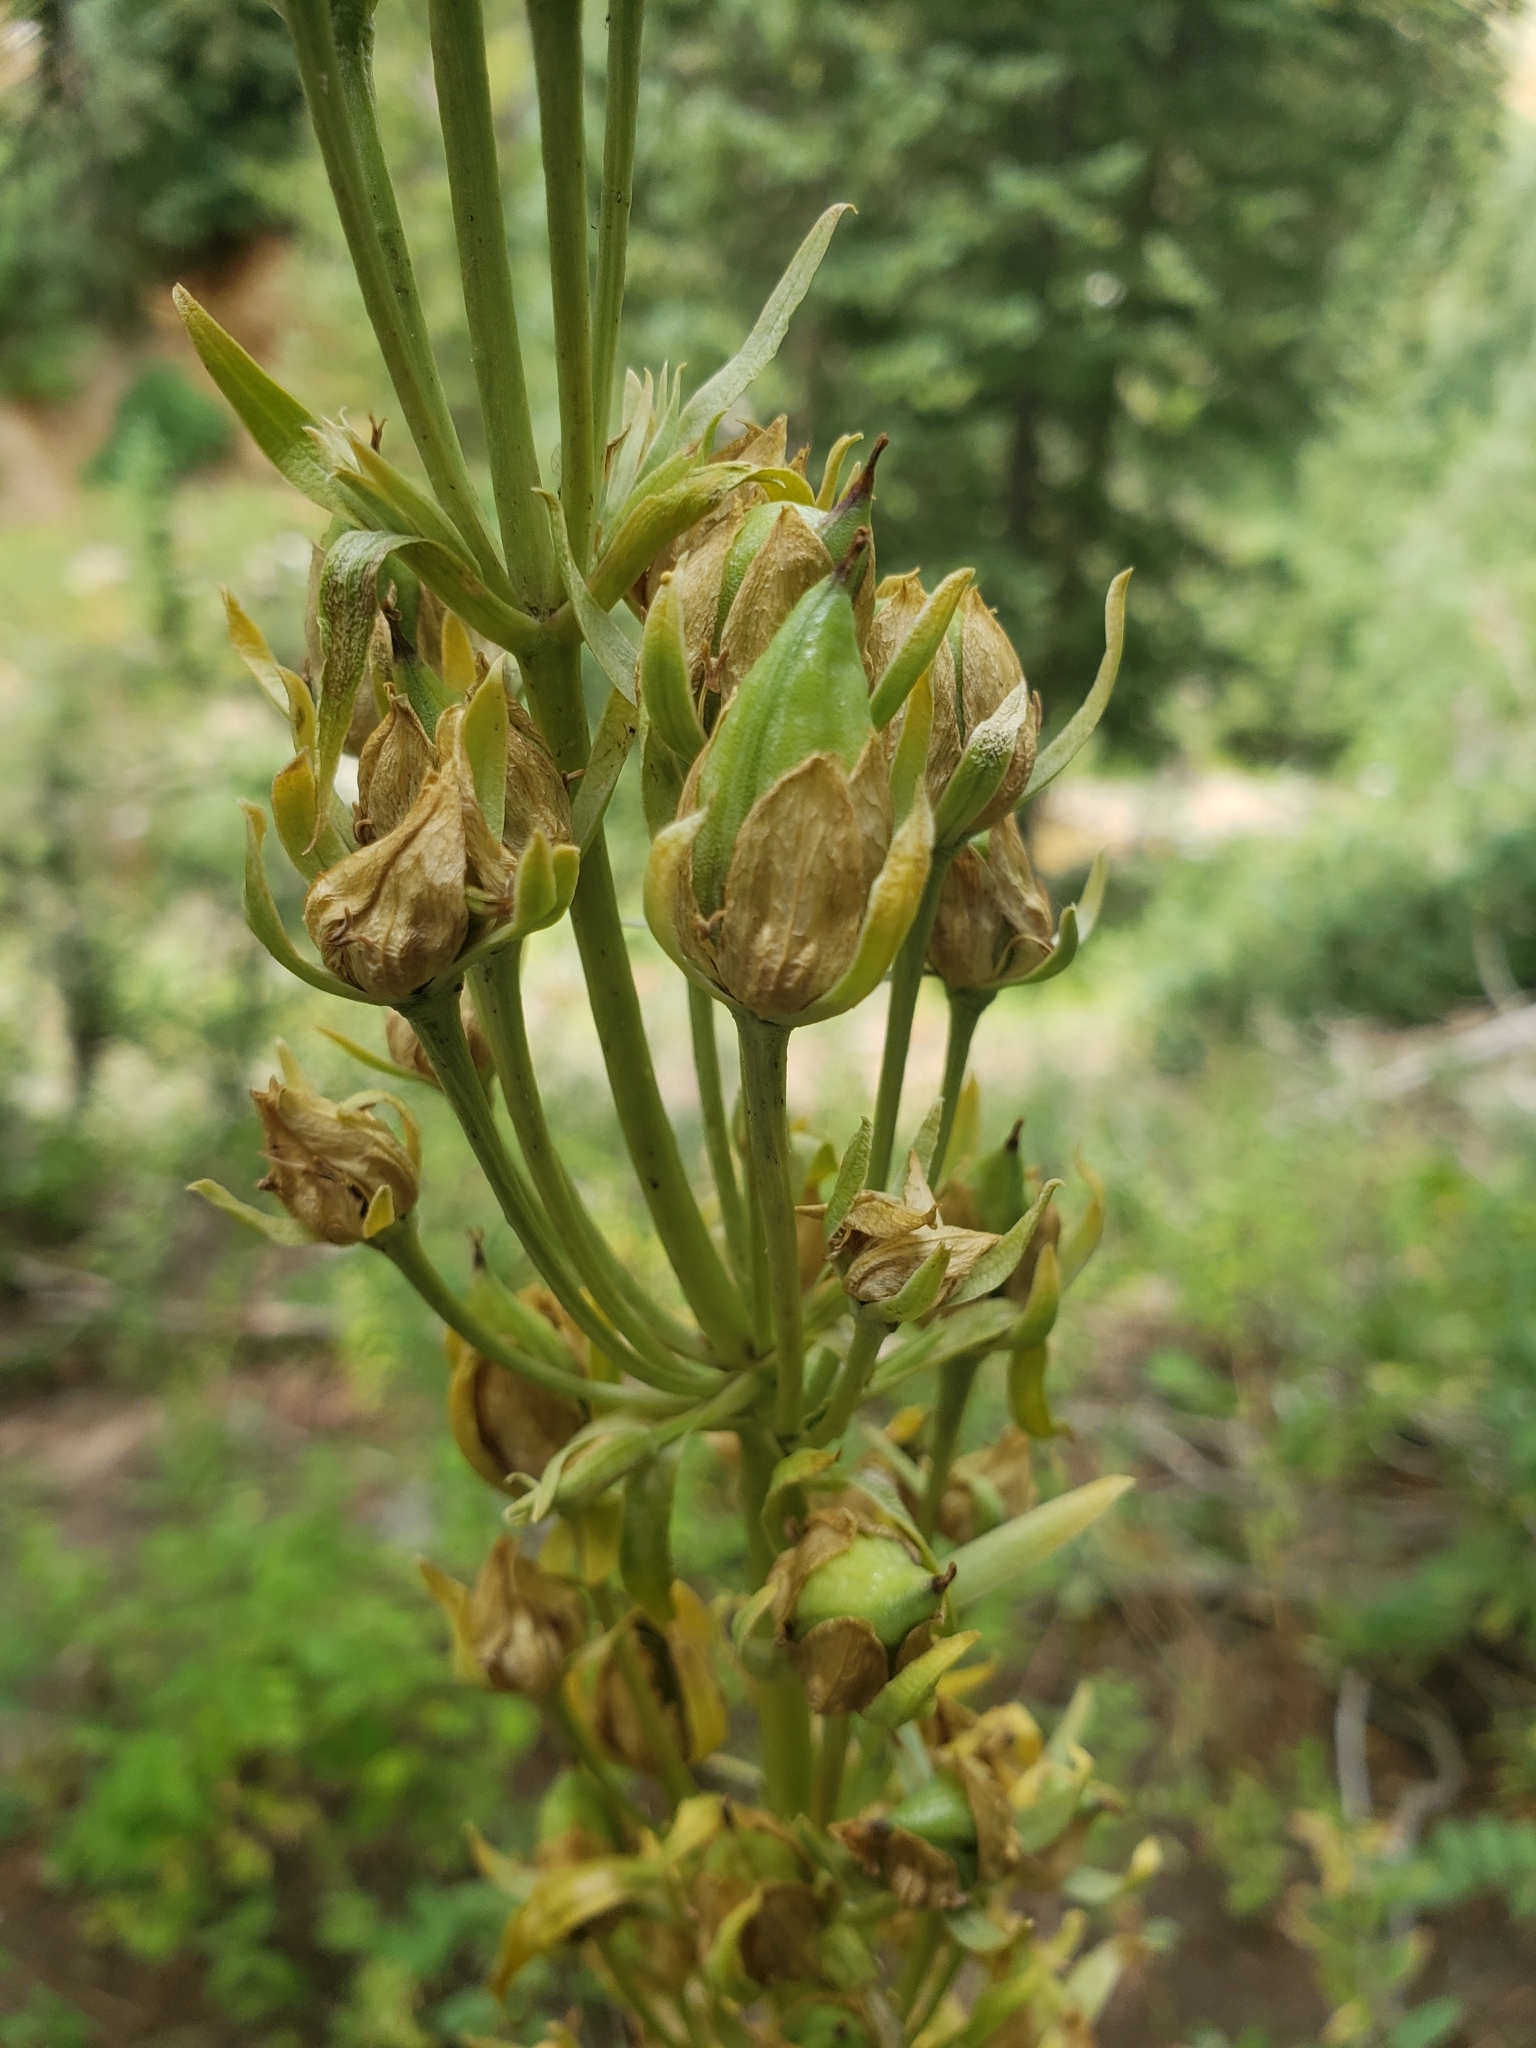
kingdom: Plantae
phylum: Tracheophyta
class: Magnoliopsida
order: Gentianales
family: Gentianaceae
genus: Frasera
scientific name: Frasera speciosa
